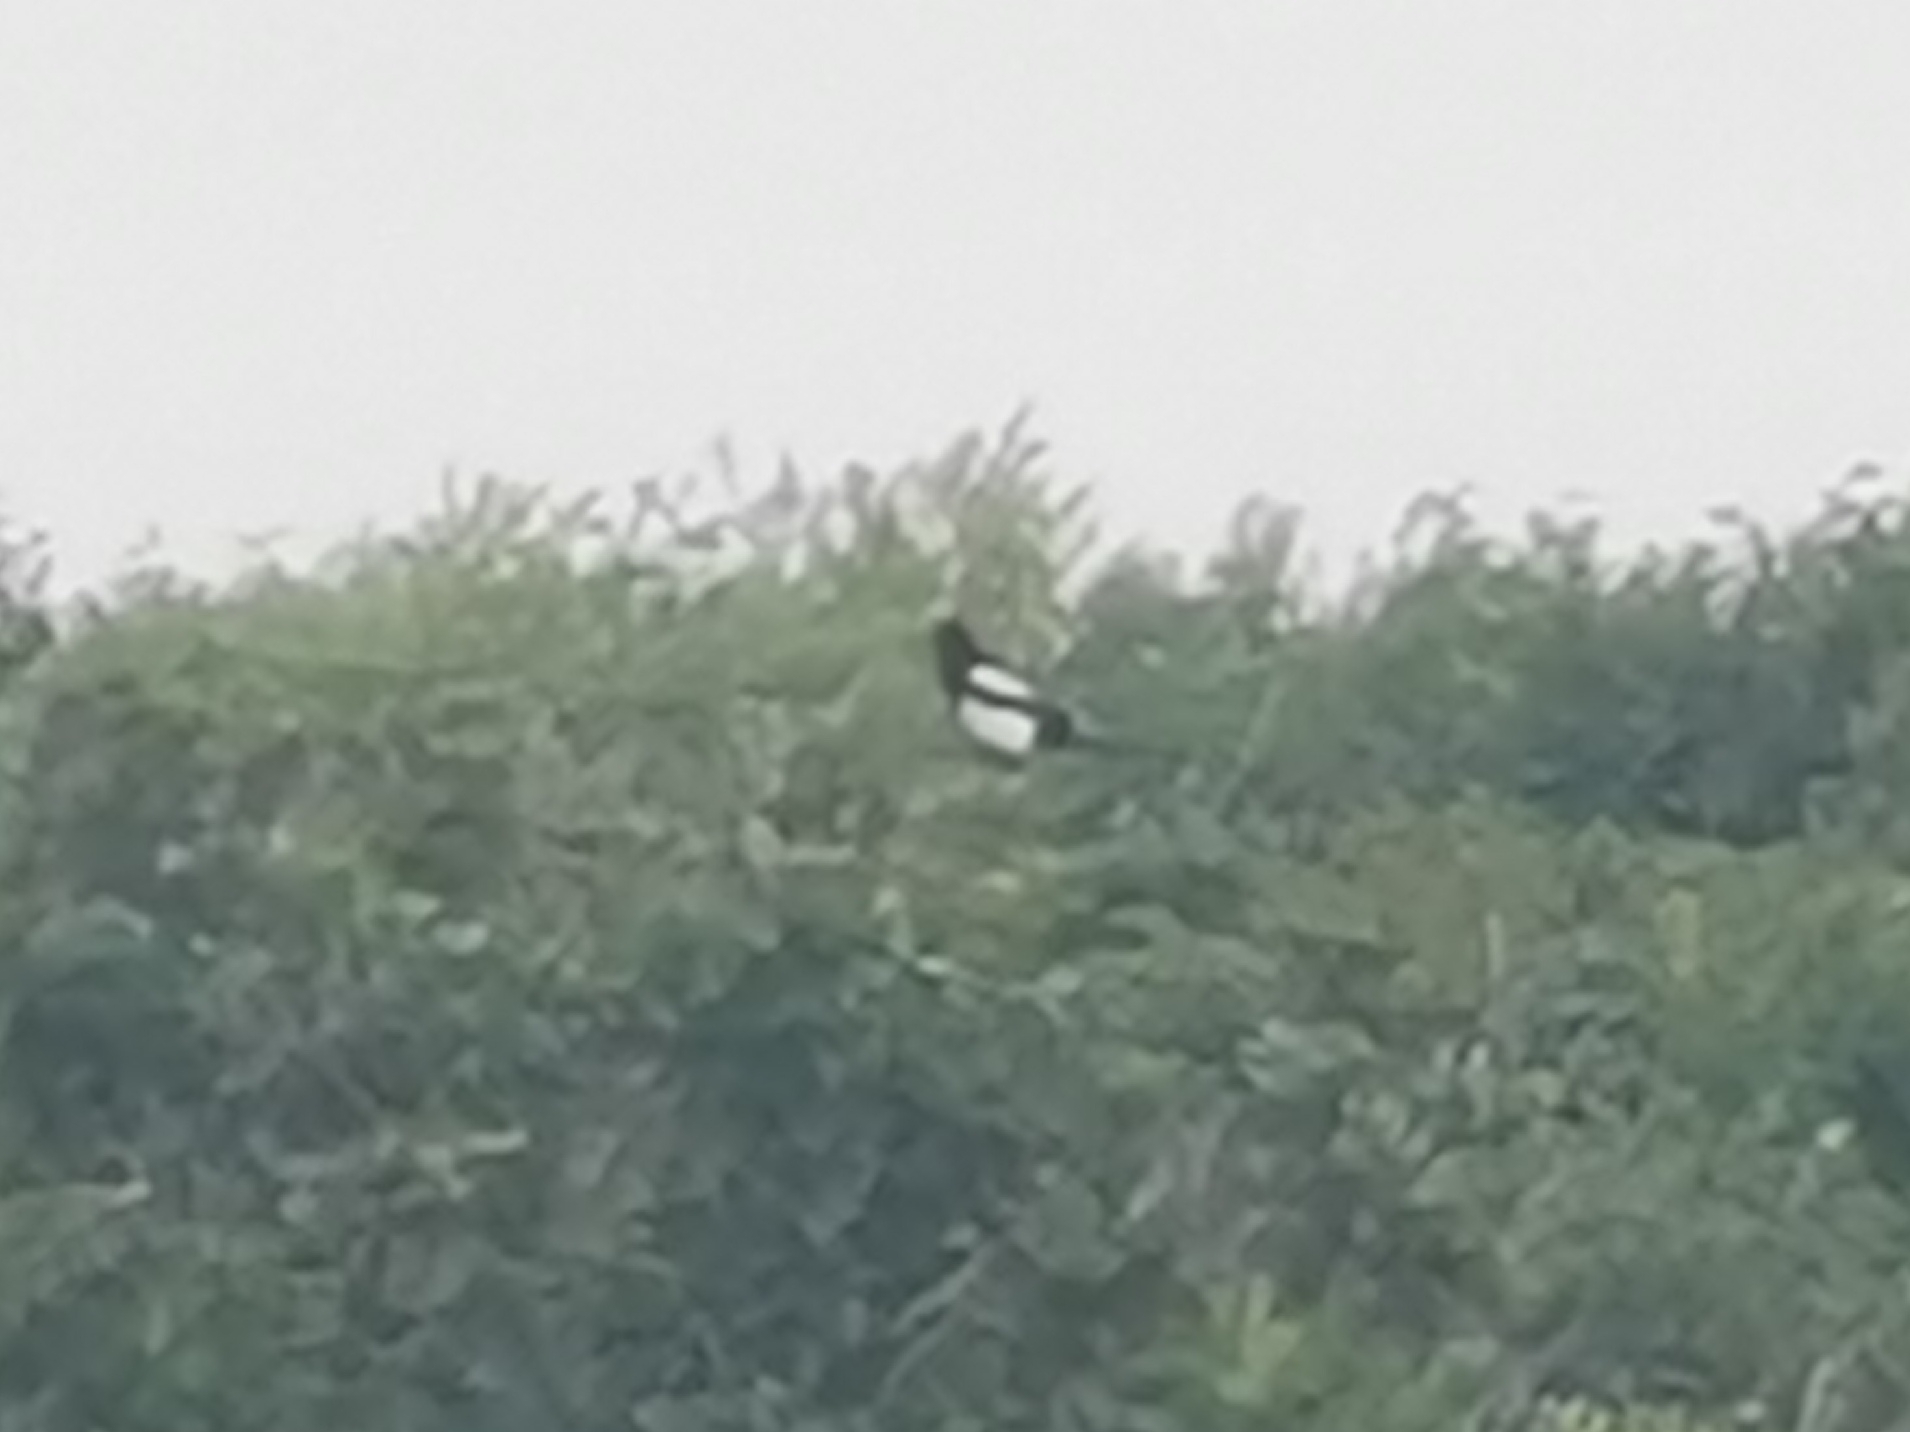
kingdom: Animalia
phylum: Chordata
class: Aves
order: Passeriformes
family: Corvidae
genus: Pica
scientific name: Pica pica
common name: Eurasian magpie
